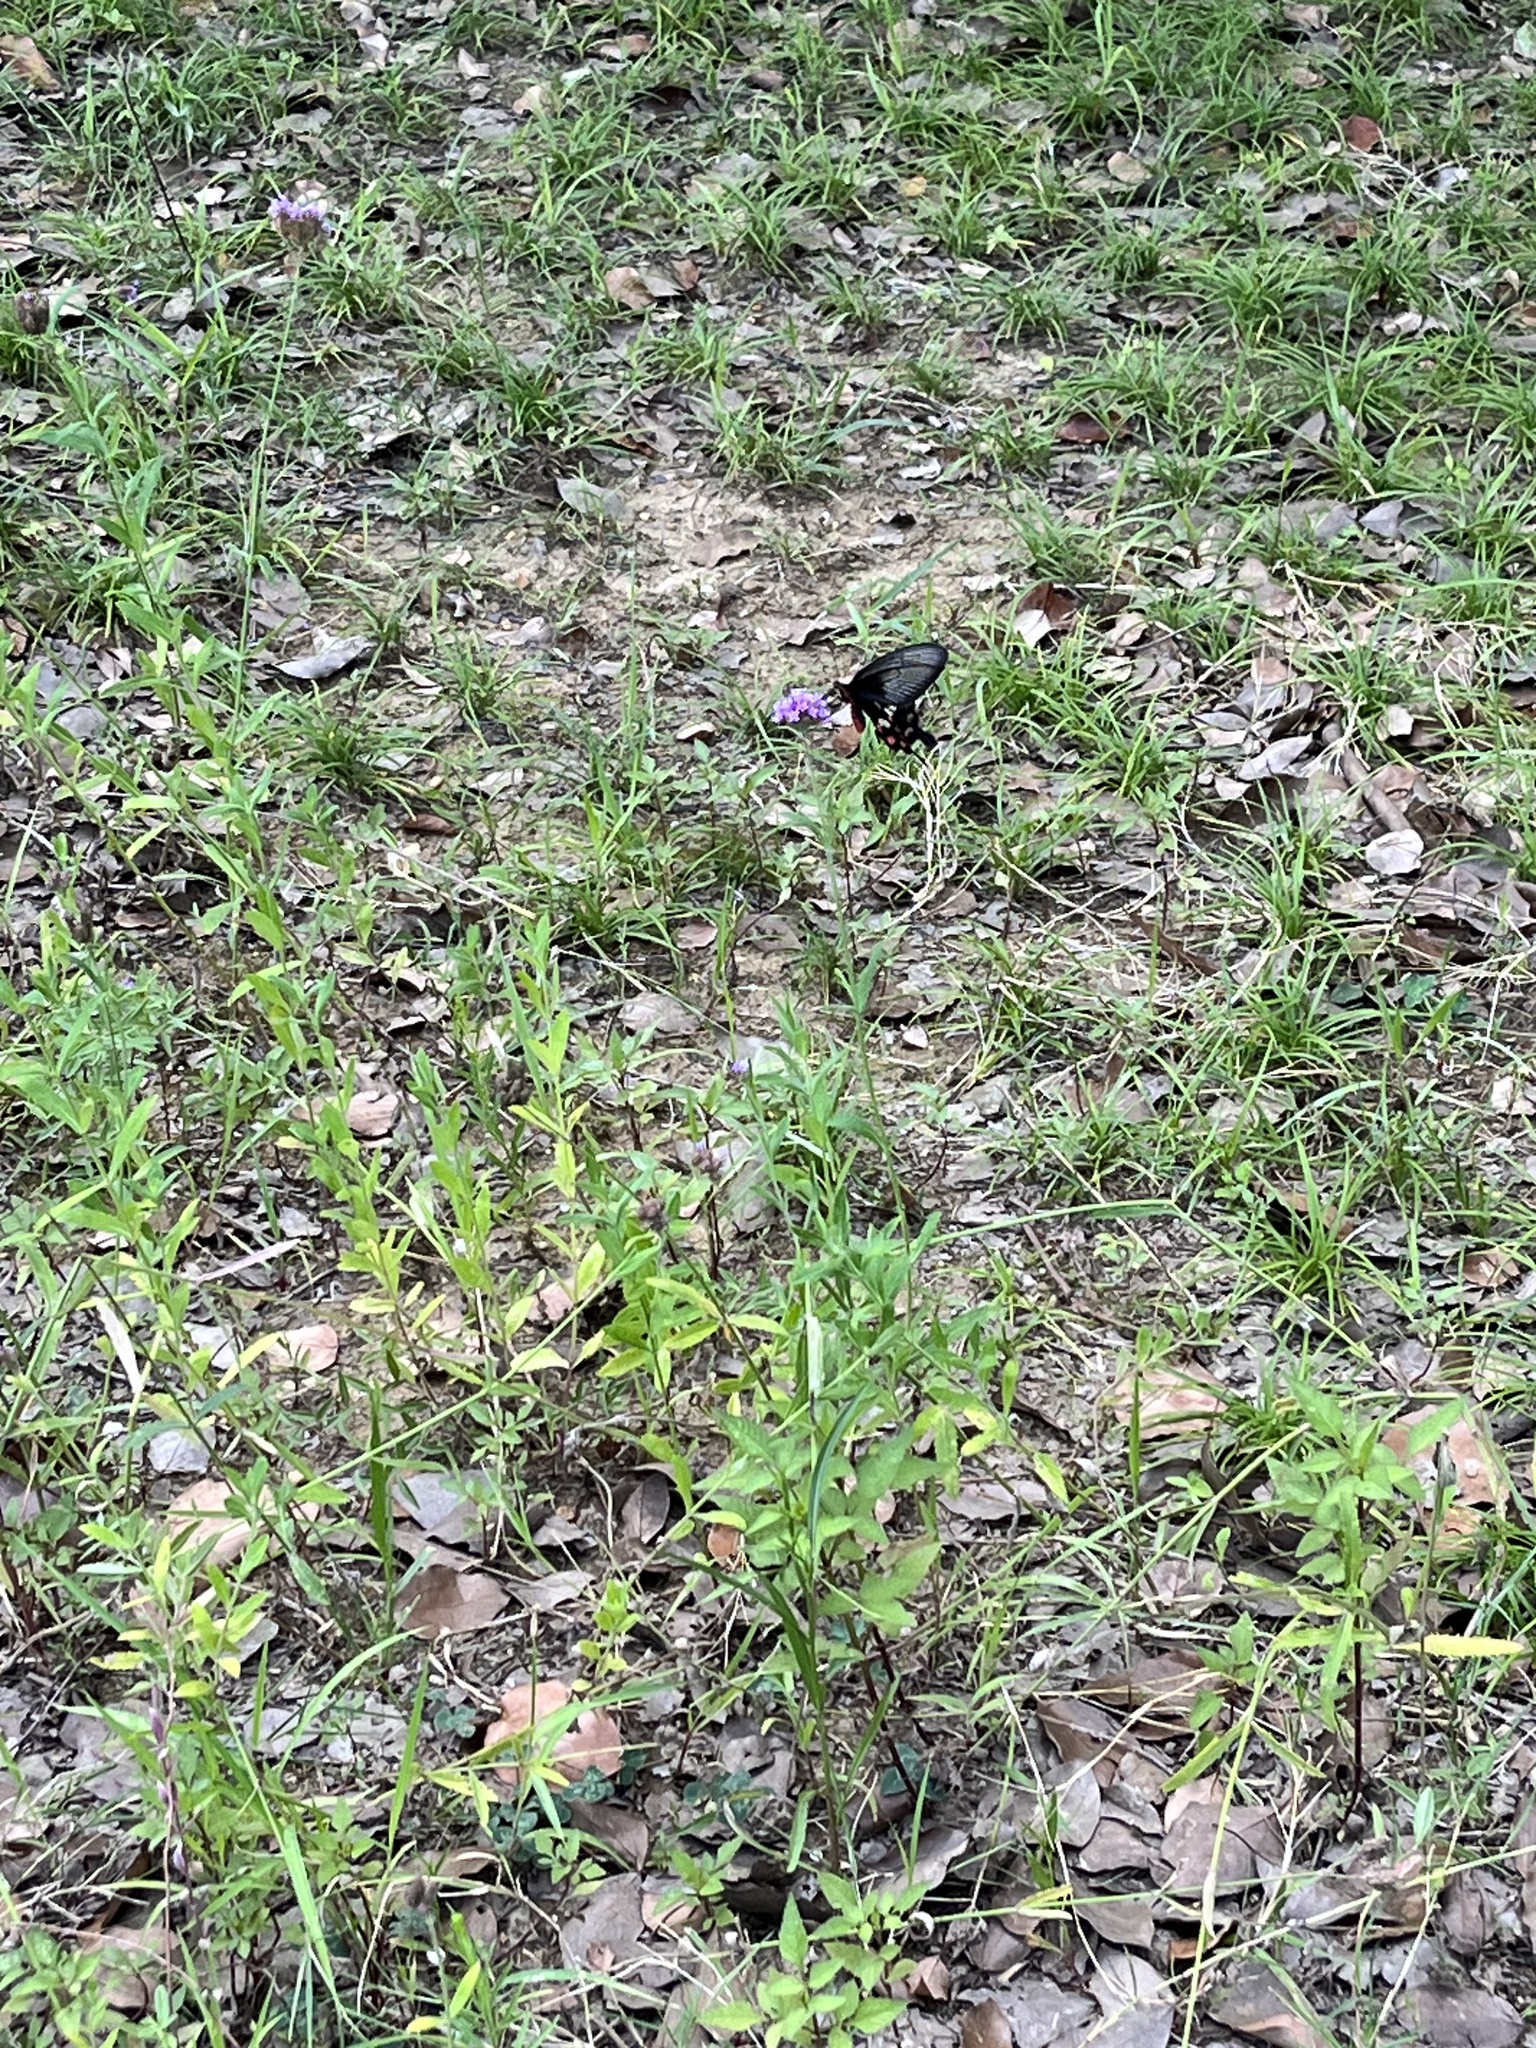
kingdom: Animalia
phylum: Arthropoda
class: Insecta
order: Lepidoptera
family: Papilionidae
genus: Pachliopta
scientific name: Pachliopta aristolochiae
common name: Common rose
